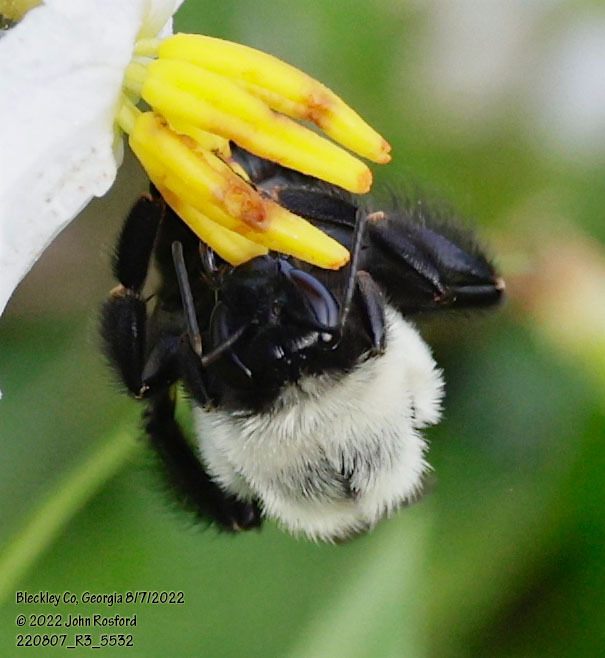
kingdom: Animalia
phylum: Arthropoda
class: Insecta
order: Hymenoptera
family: Apidae
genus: Bombus
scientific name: Bombus impatiens
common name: Common eastern bumble bee
